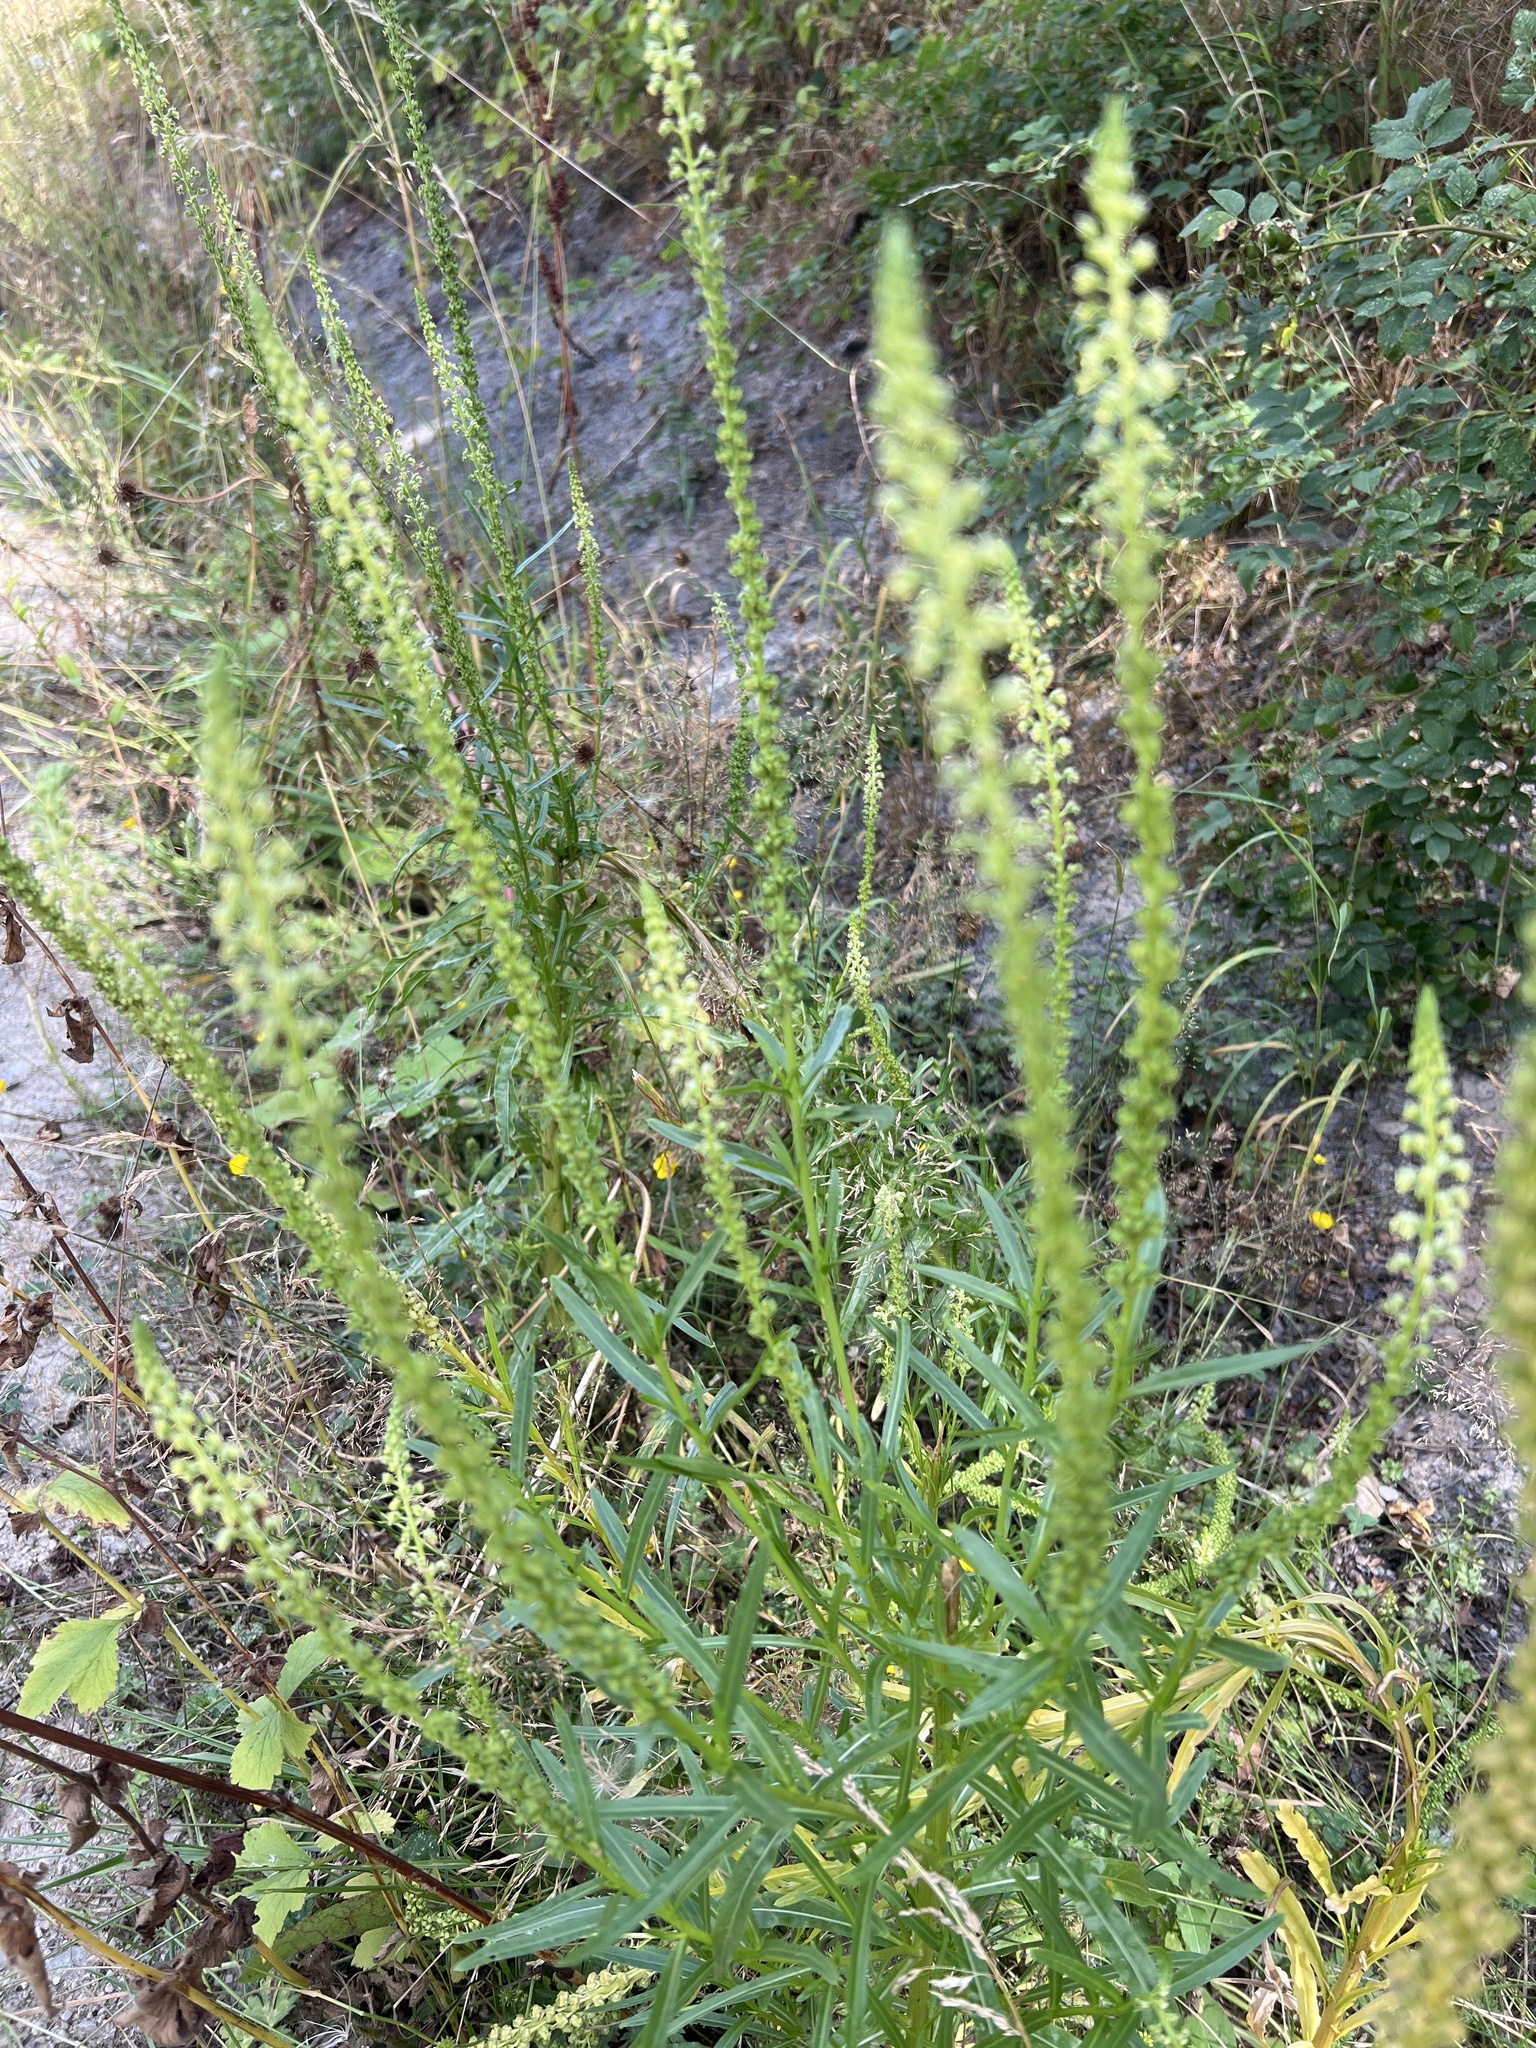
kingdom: Plantae
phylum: Tracheophyta
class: Magnoliopsida
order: Brassicales
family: Resedaceae
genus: Reseda
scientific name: Reseda luteola
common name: Weld
